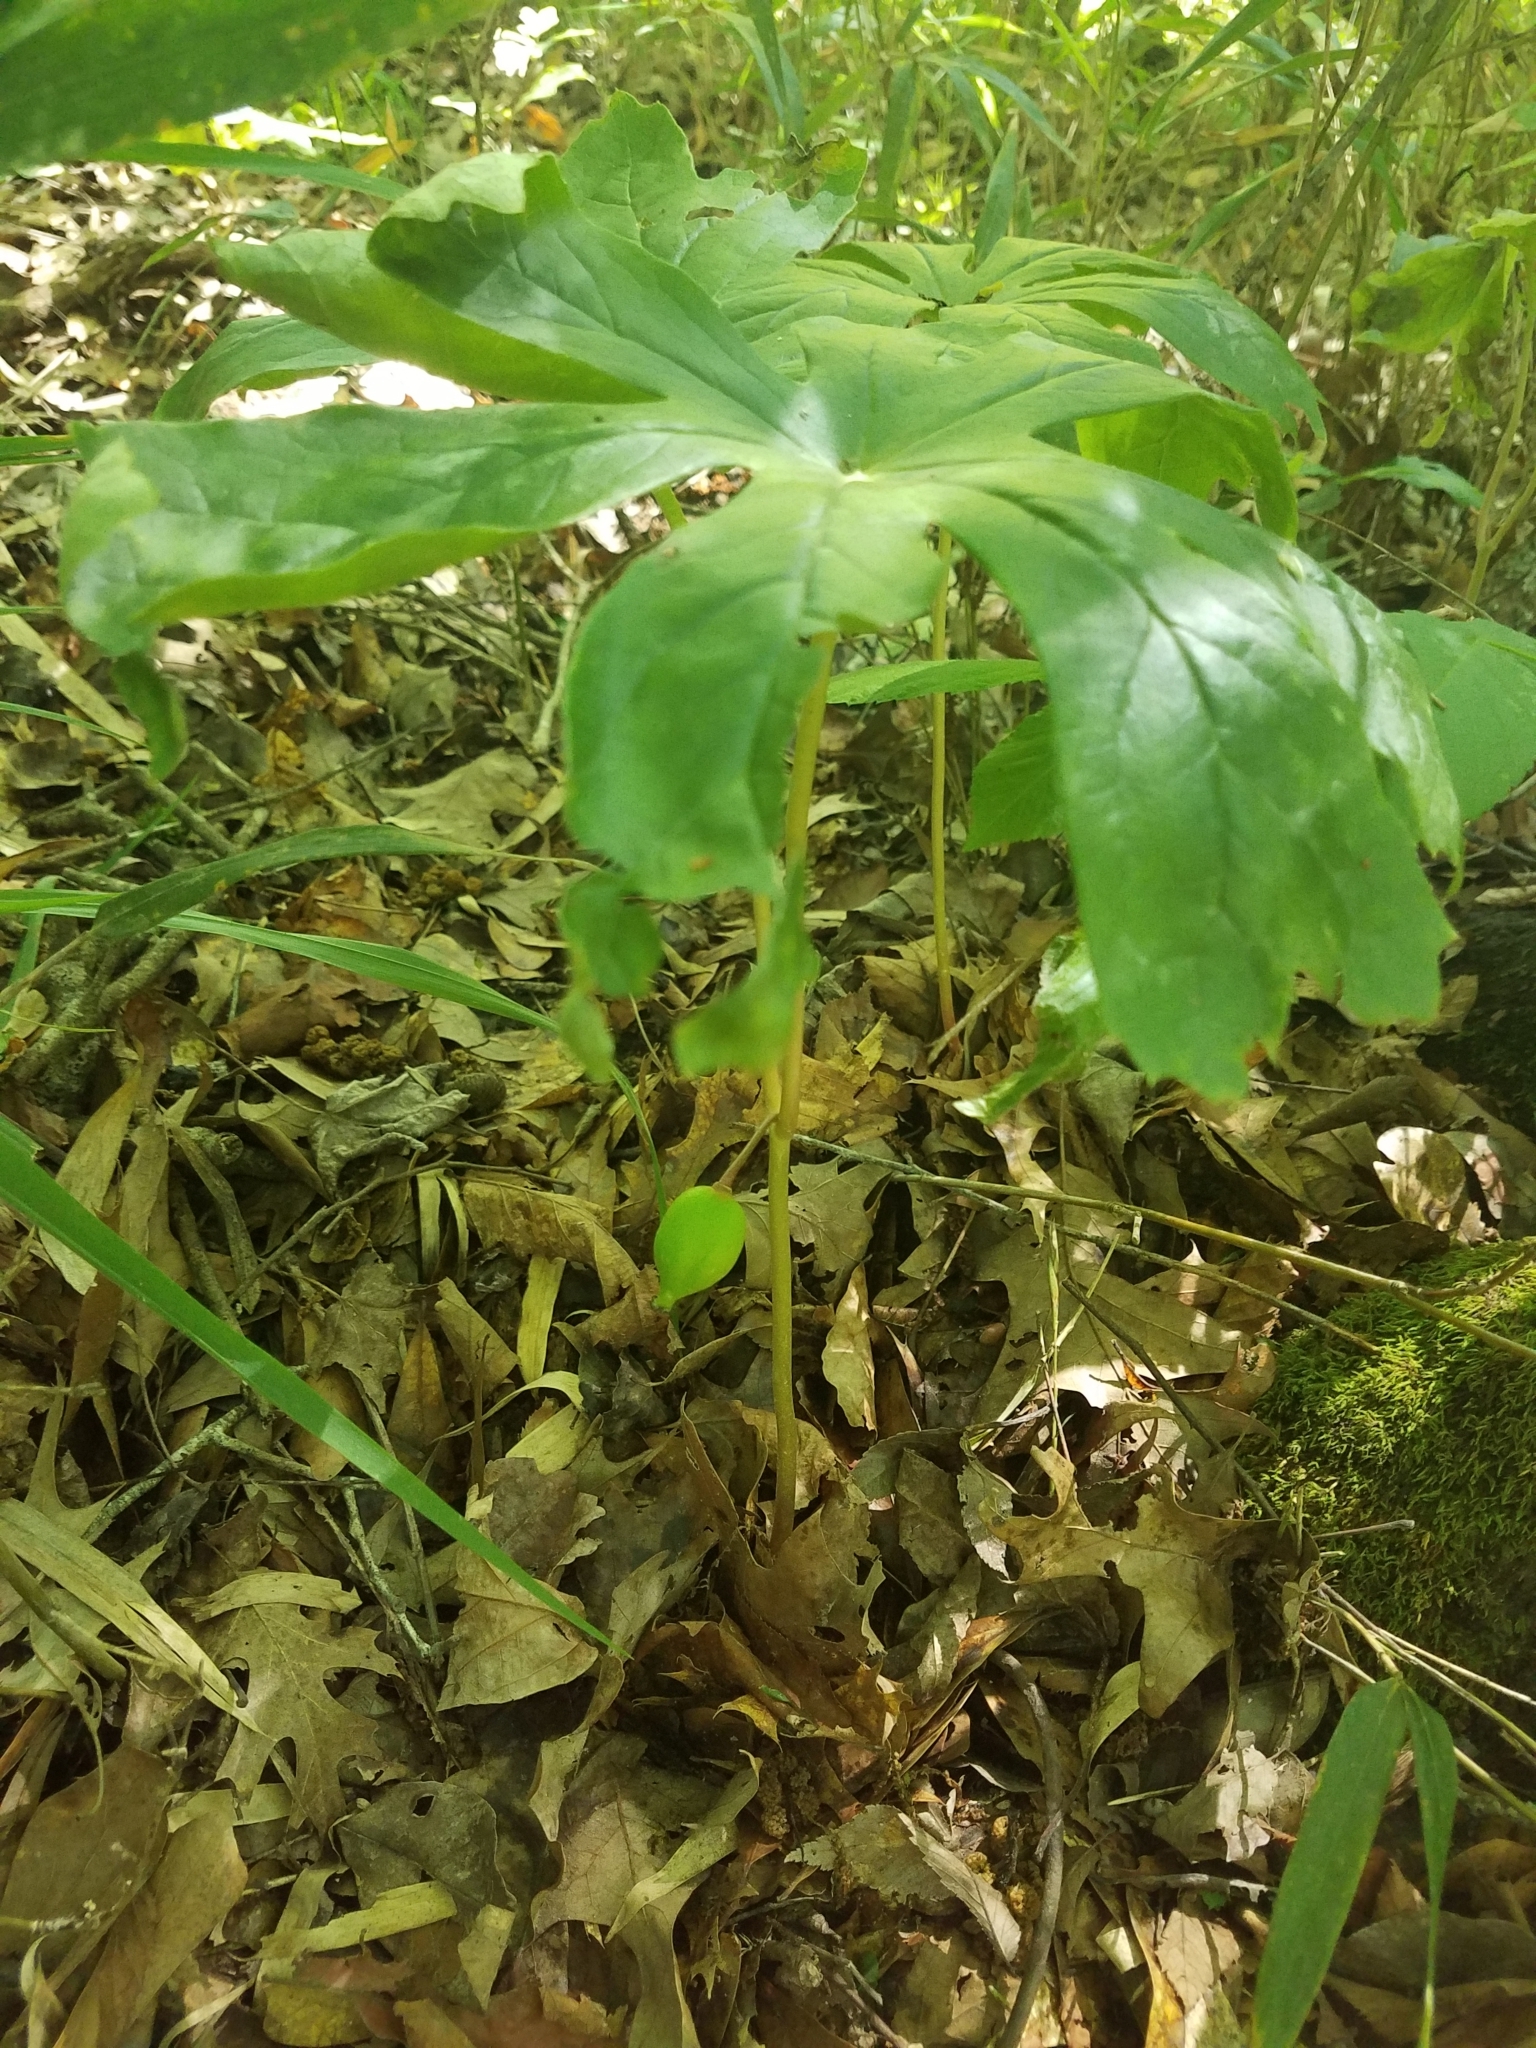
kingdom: Plantae
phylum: Tracheophyta
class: Magnoliopsida
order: Ranunculales
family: Berberidaceae
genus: Podophyllum
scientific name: Podophyllum peltatum
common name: Wild mandrake
